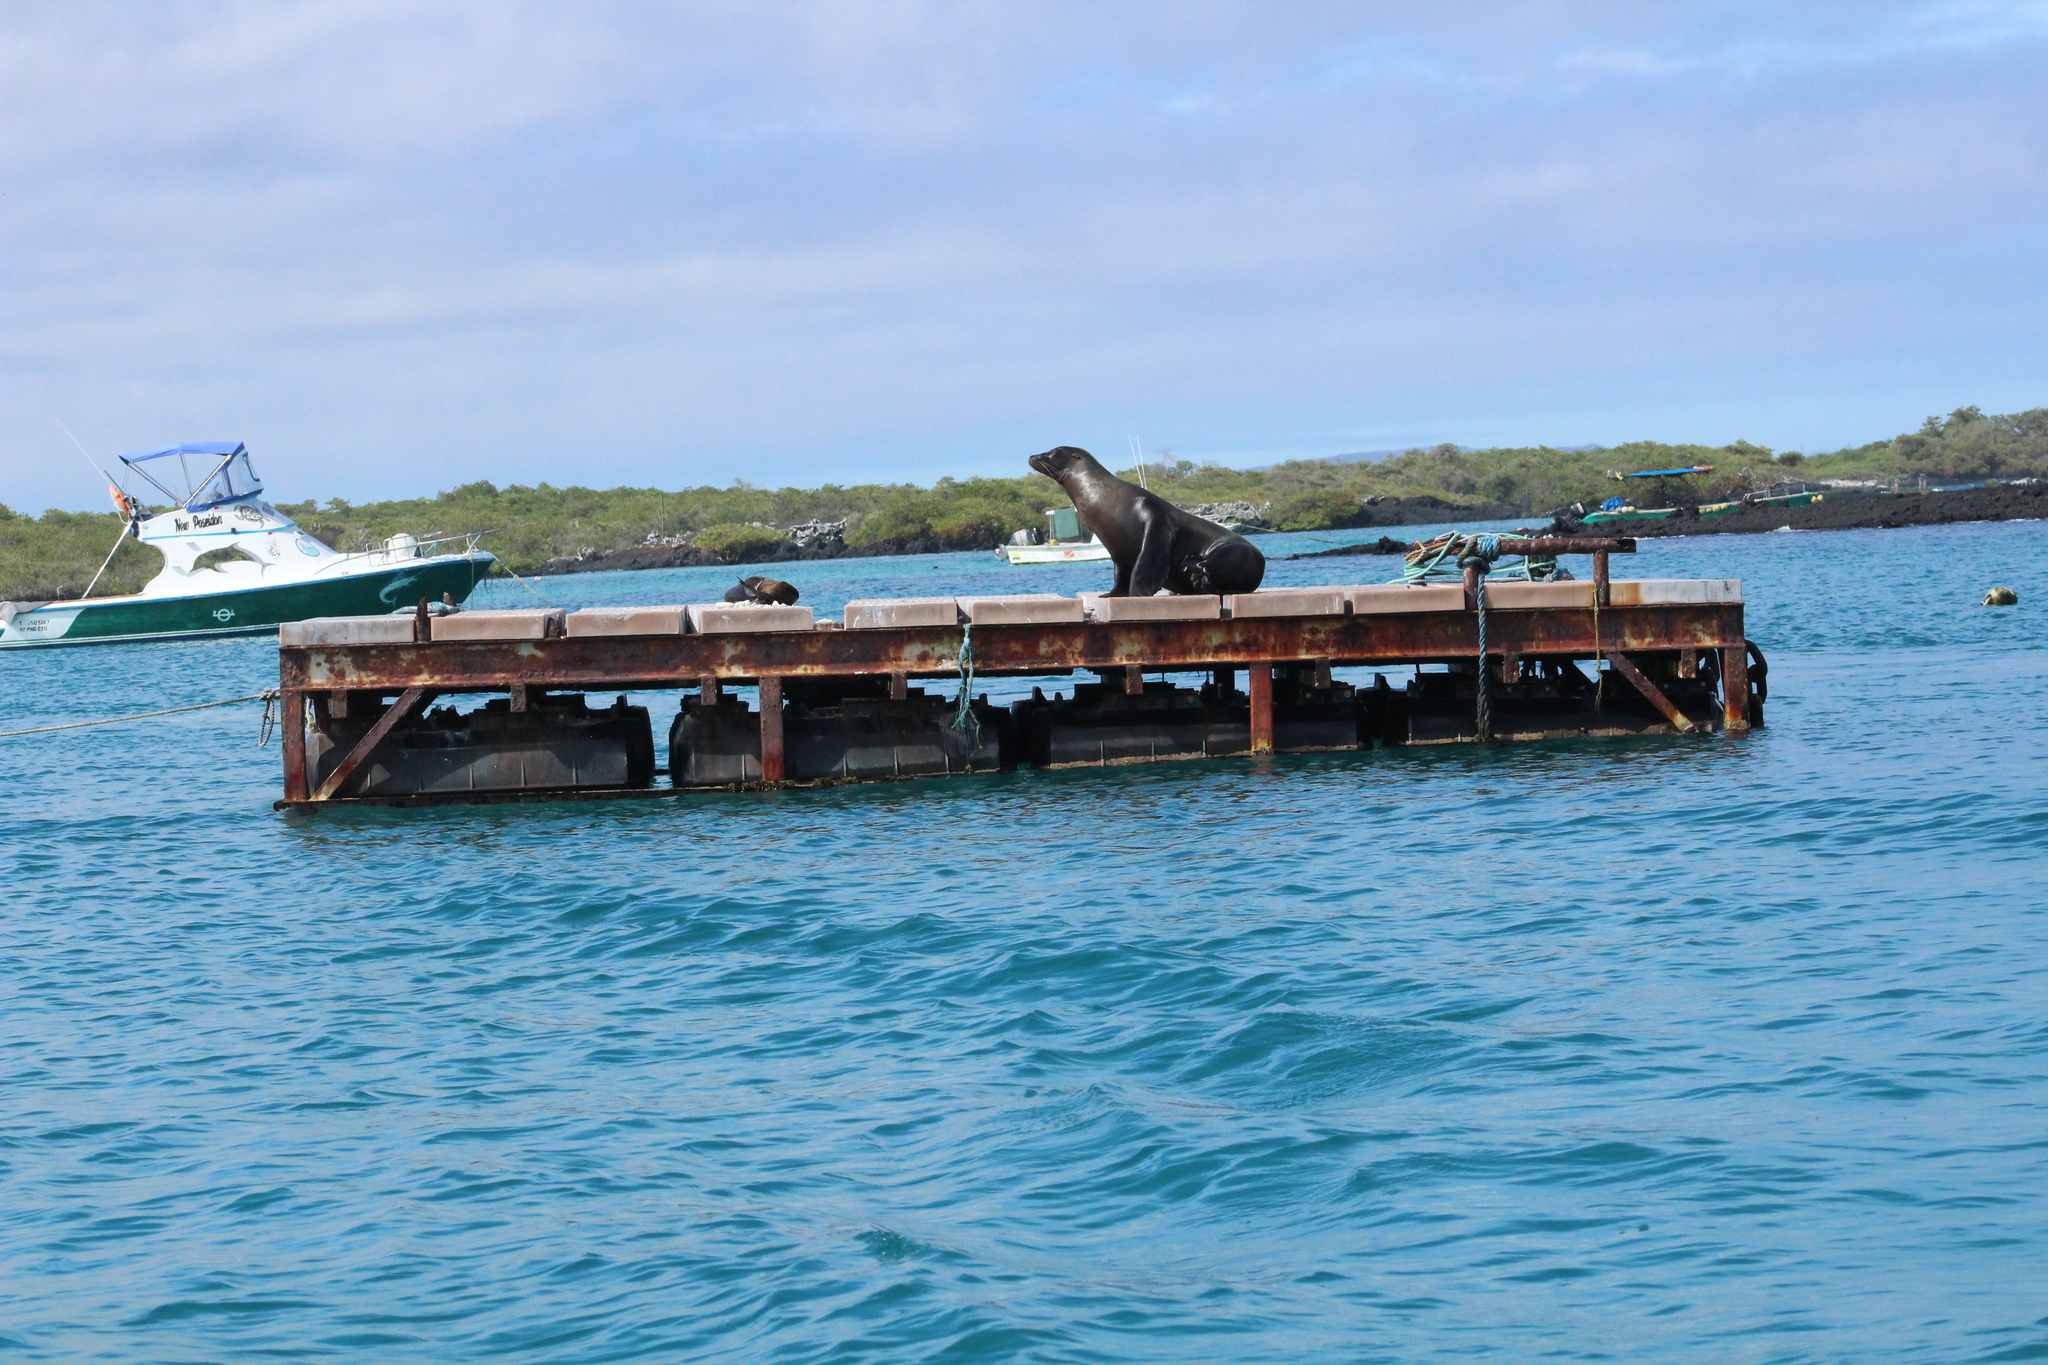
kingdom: Animalia
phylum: Chordata
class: Mammalia
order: Carnivora
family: Otariidae
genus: Zalophus
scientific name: Zalophus wollebaeki
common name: Galapagos sea lion
